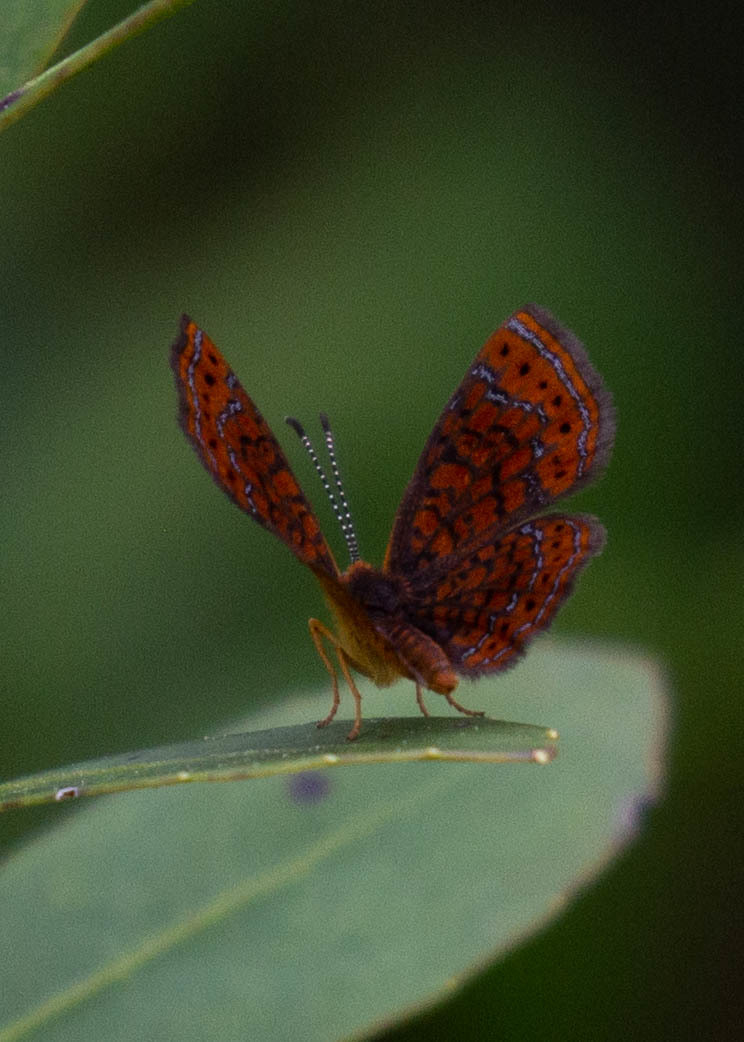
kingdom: Animalia
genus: Calephelis
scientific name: Calephelis virginiensis
